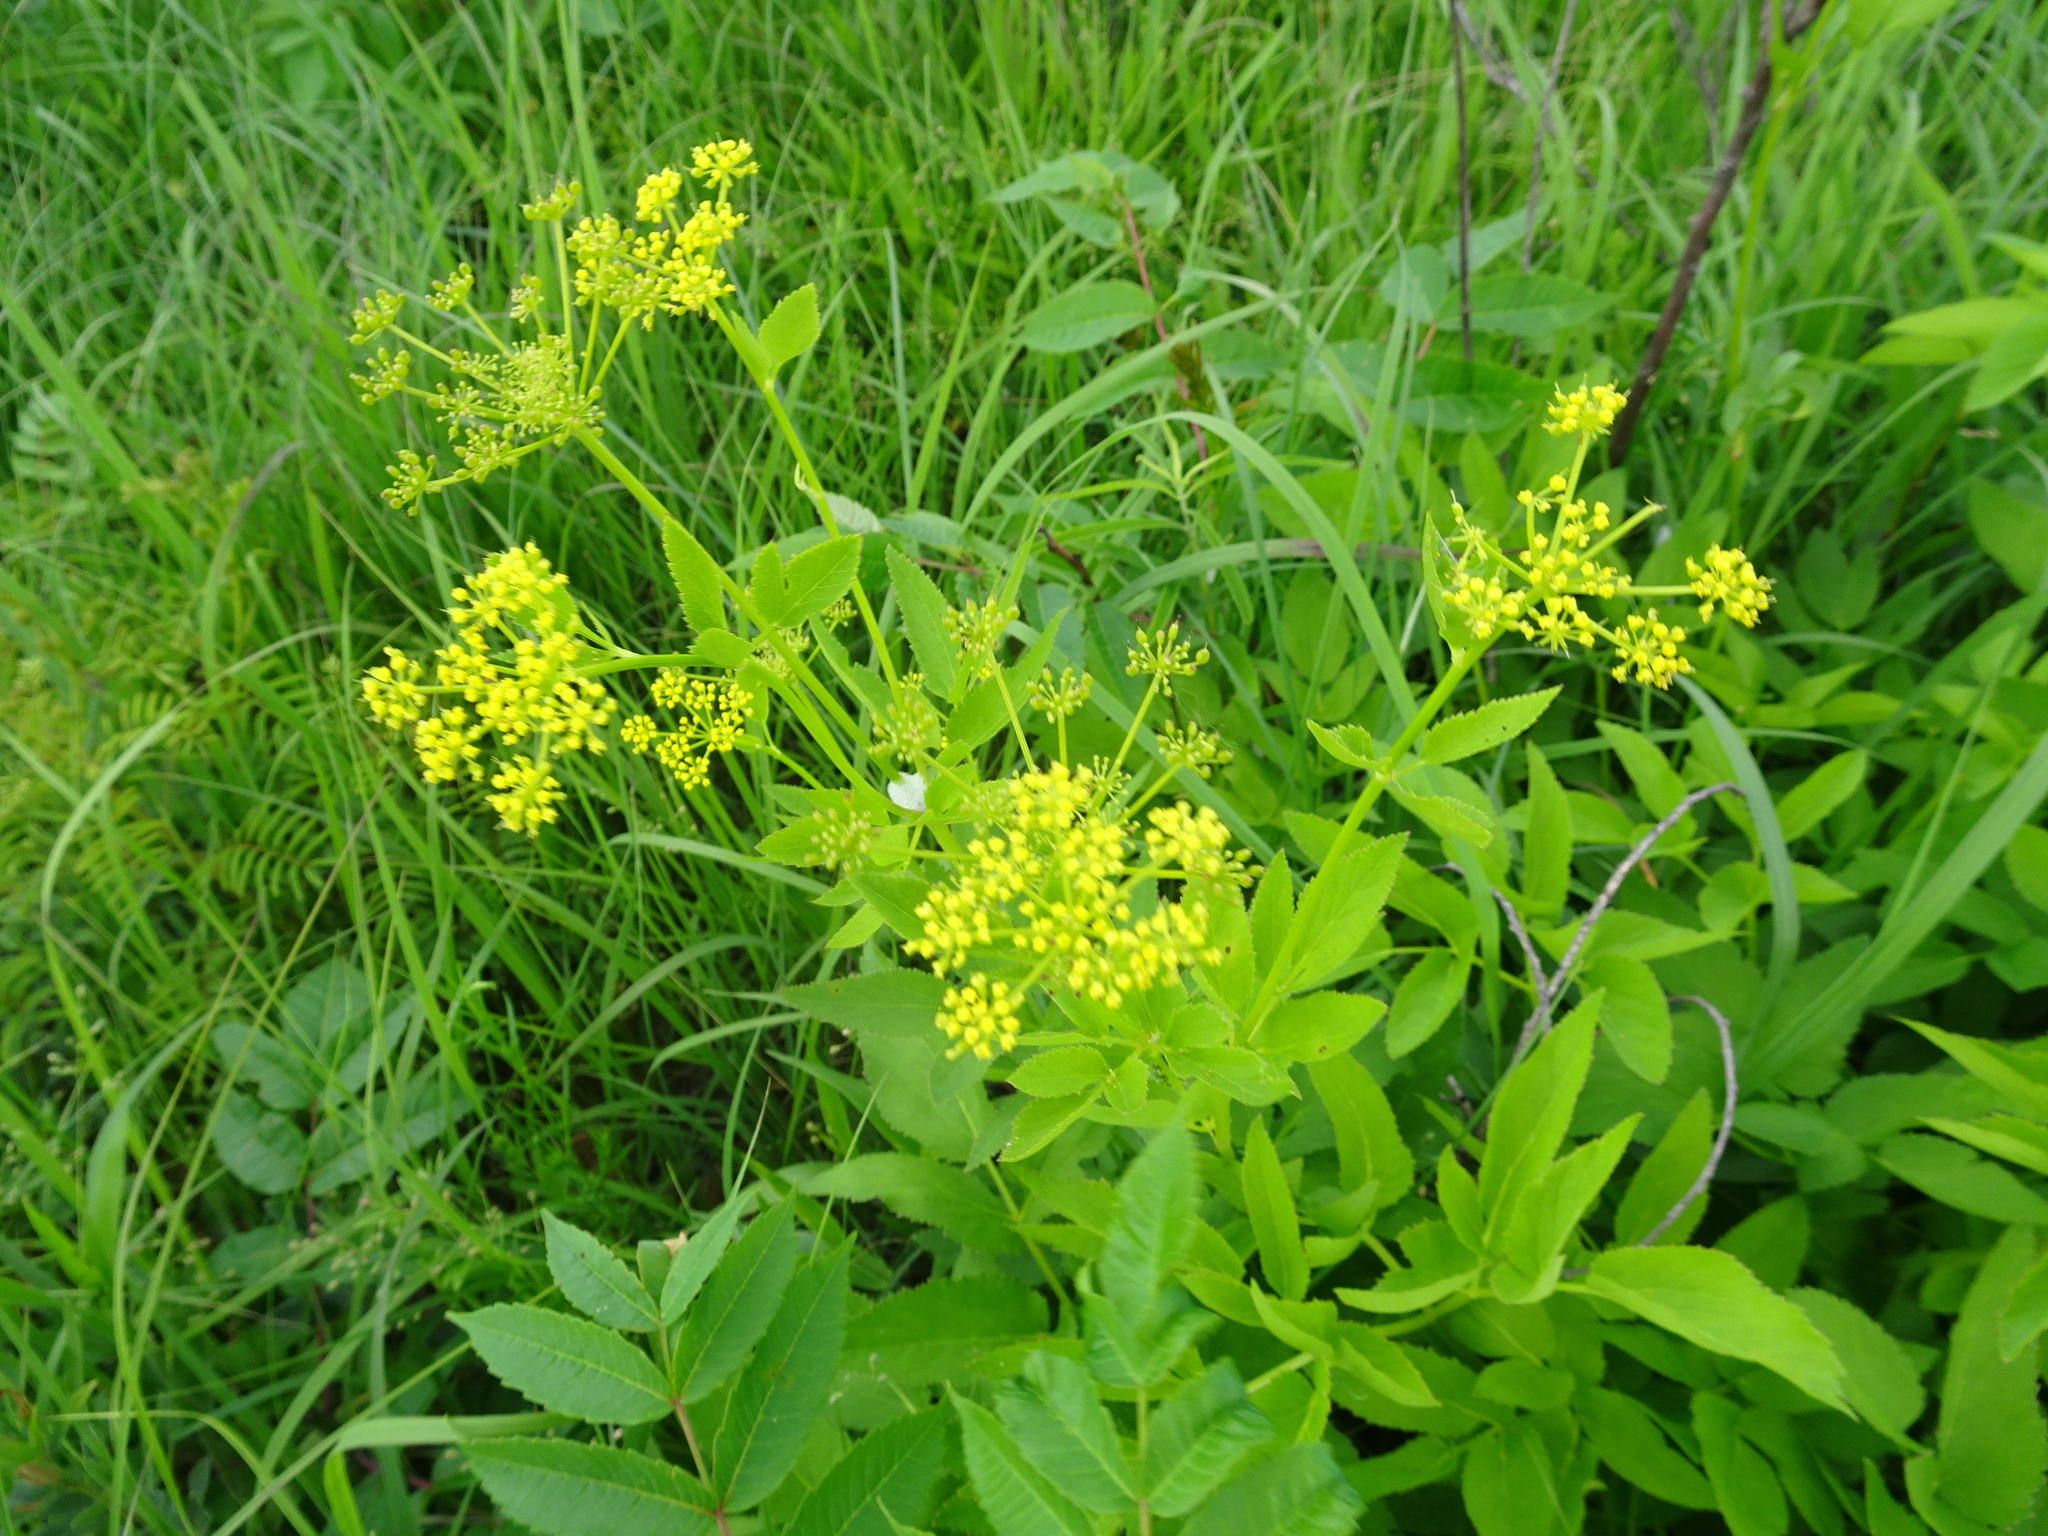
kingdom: Plantae
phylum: Tracheophyta
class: Magnoliopsida
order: Apiales
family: Apiaceae
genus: Zizia
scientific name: Zizia aurea
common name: Golden alexanders
